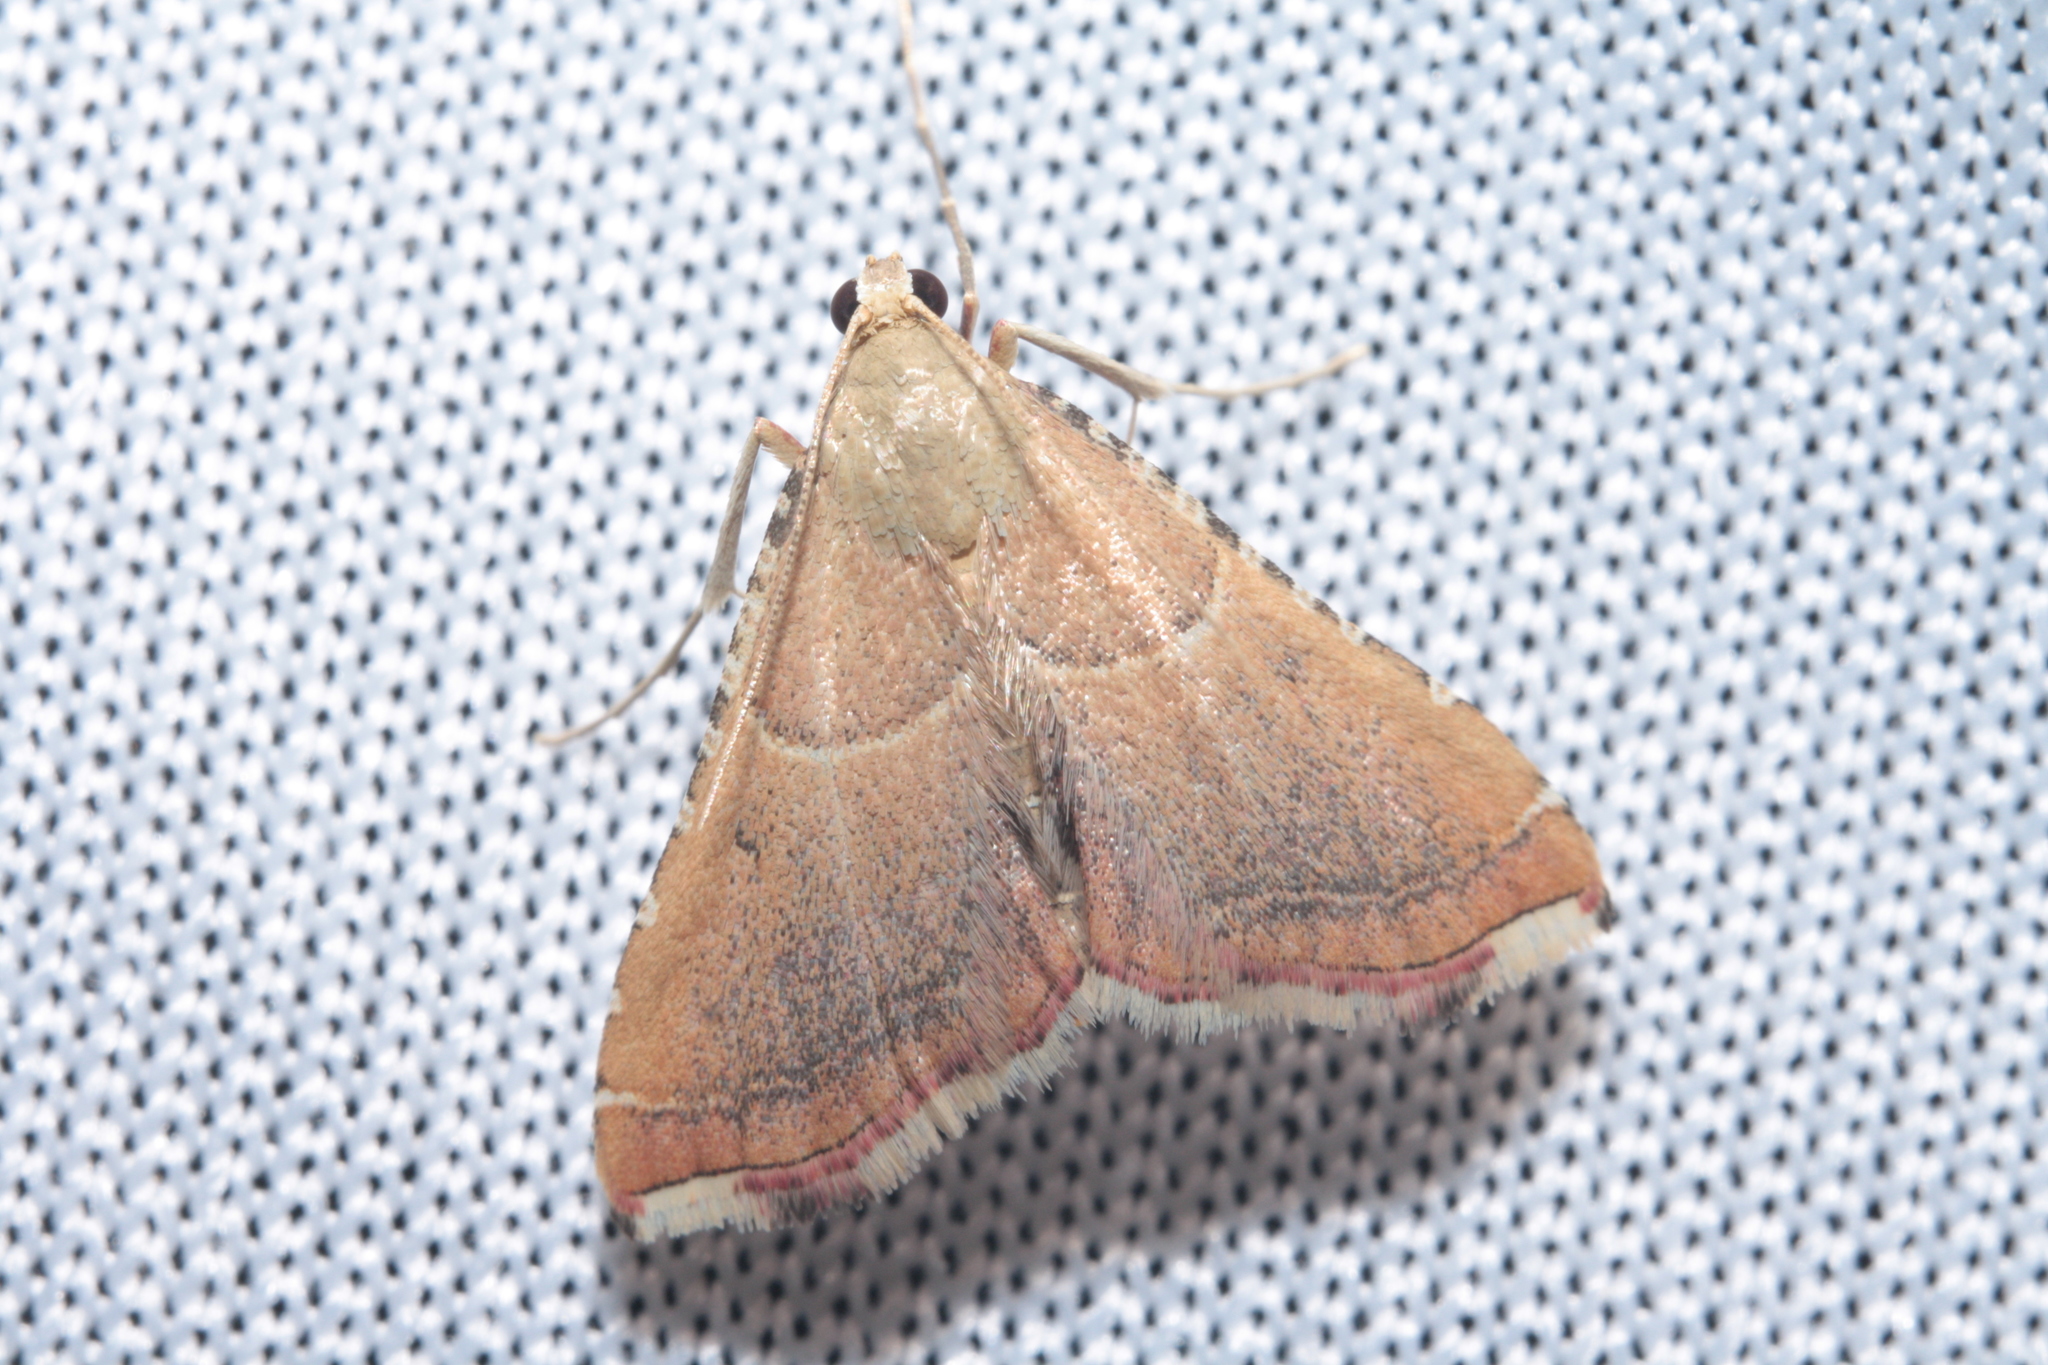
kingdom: Animalia
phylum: Arthropoda
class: Insecta
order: Lepidoptera
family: Pyralidae
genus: Endotricha
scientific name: Endotricha flammealis
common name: Rosy tabby
